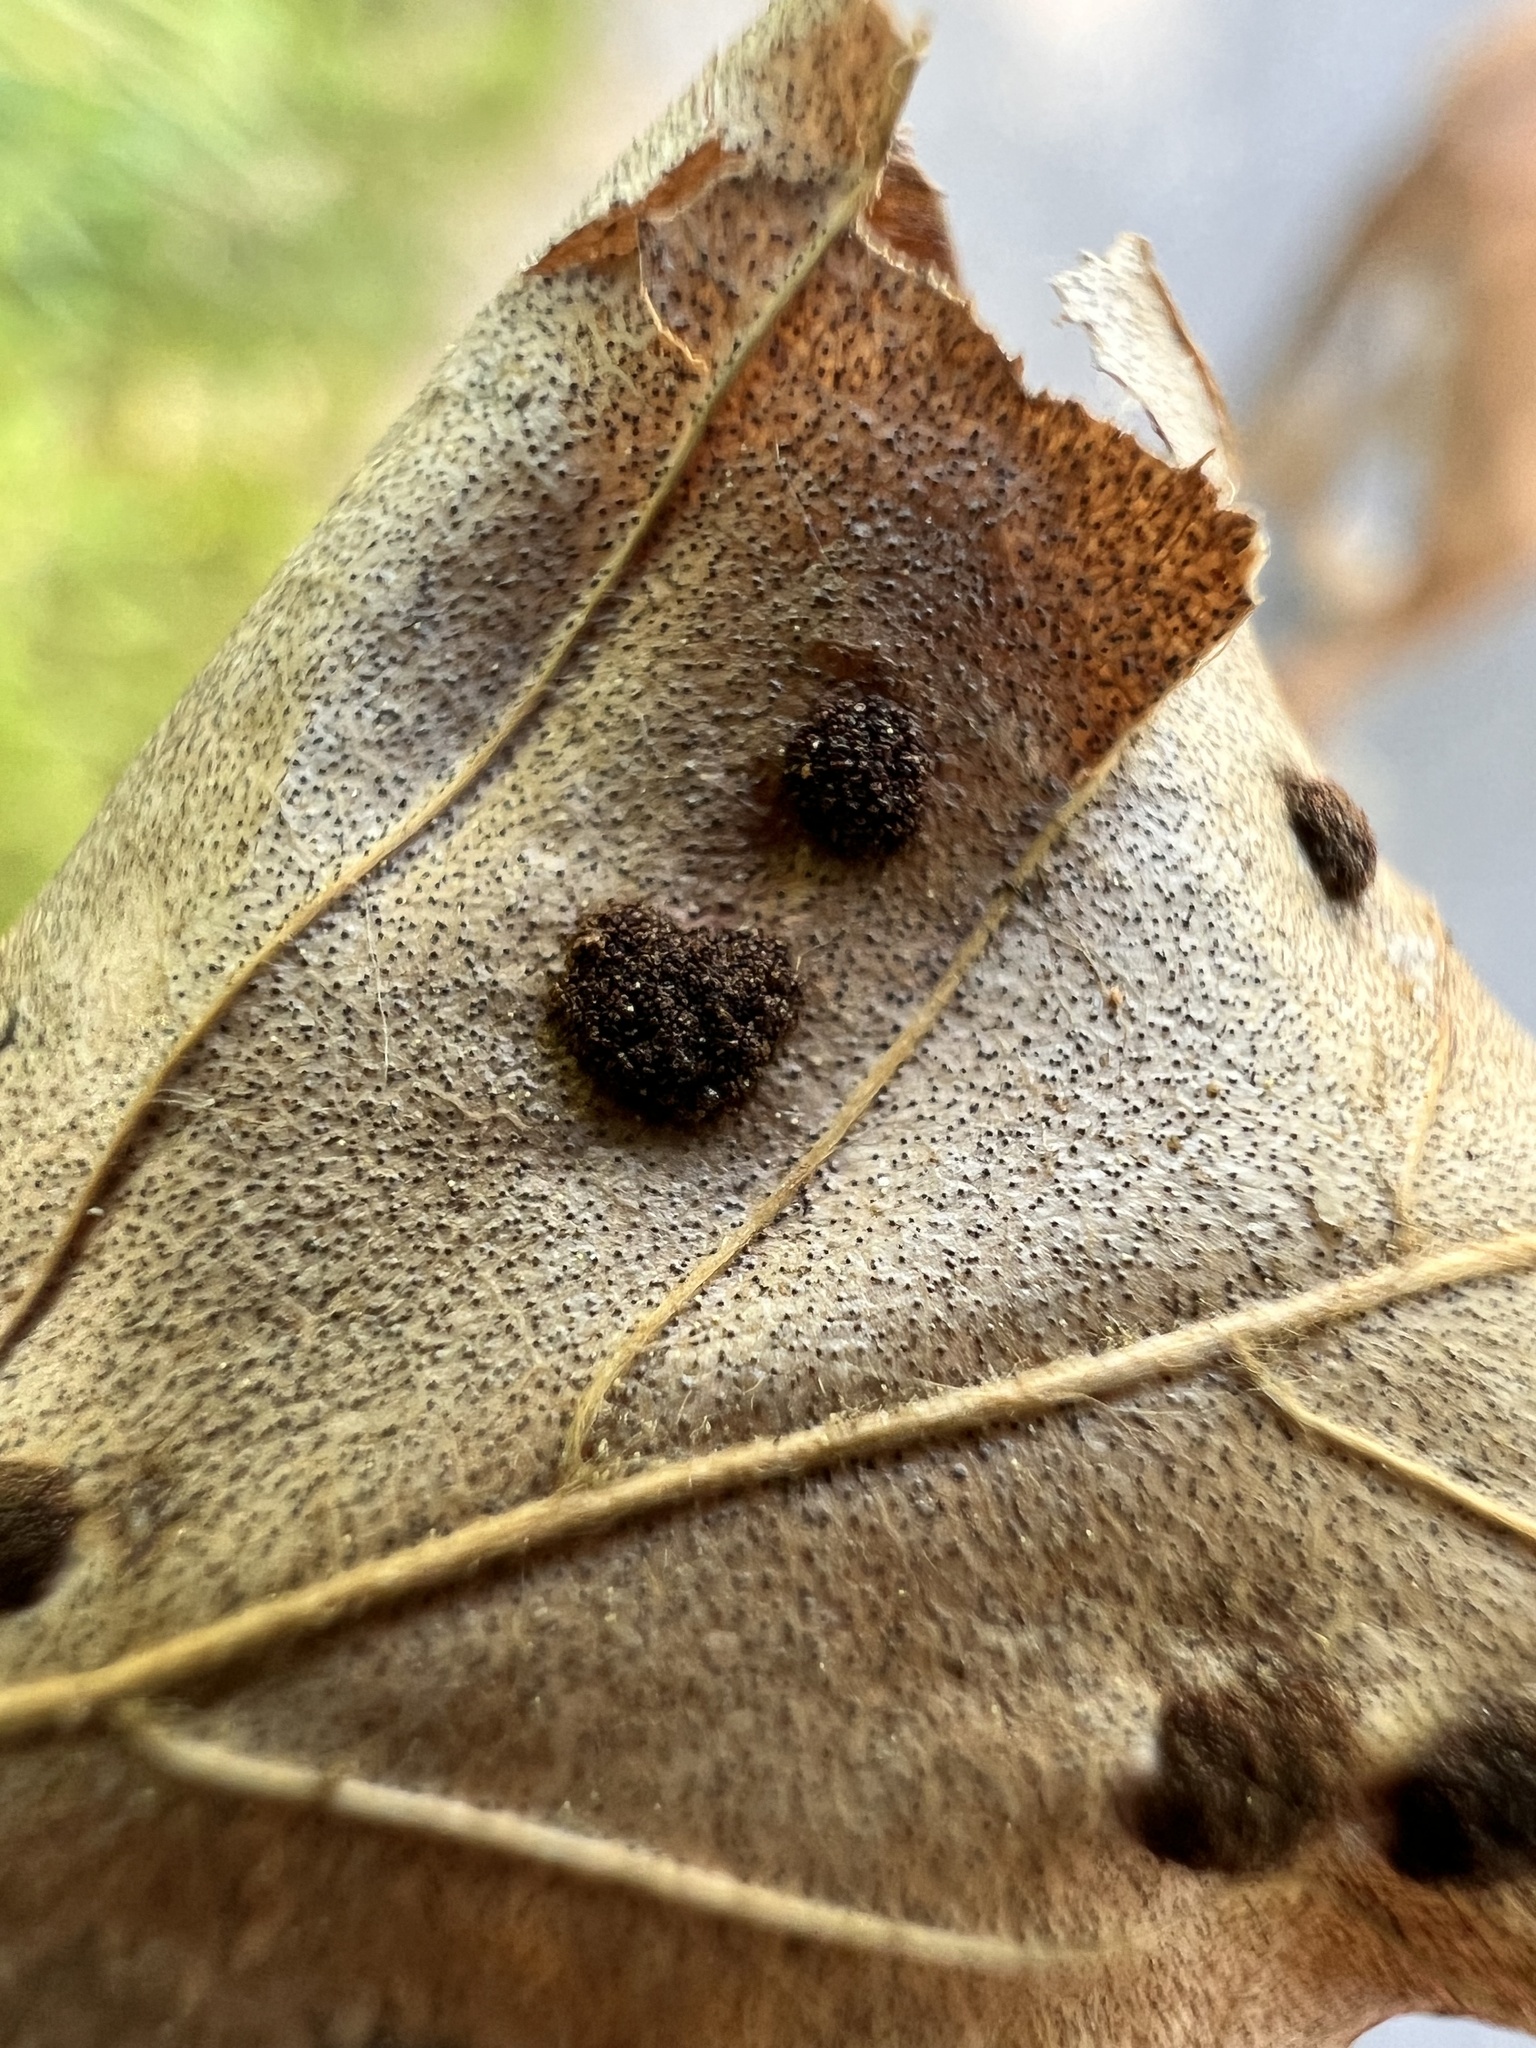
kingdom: Animalia
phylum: Arthropoda
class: Arachnida
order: Trombidiformes
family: Eriophyidae
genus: Acalitus
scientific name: Acalitus
